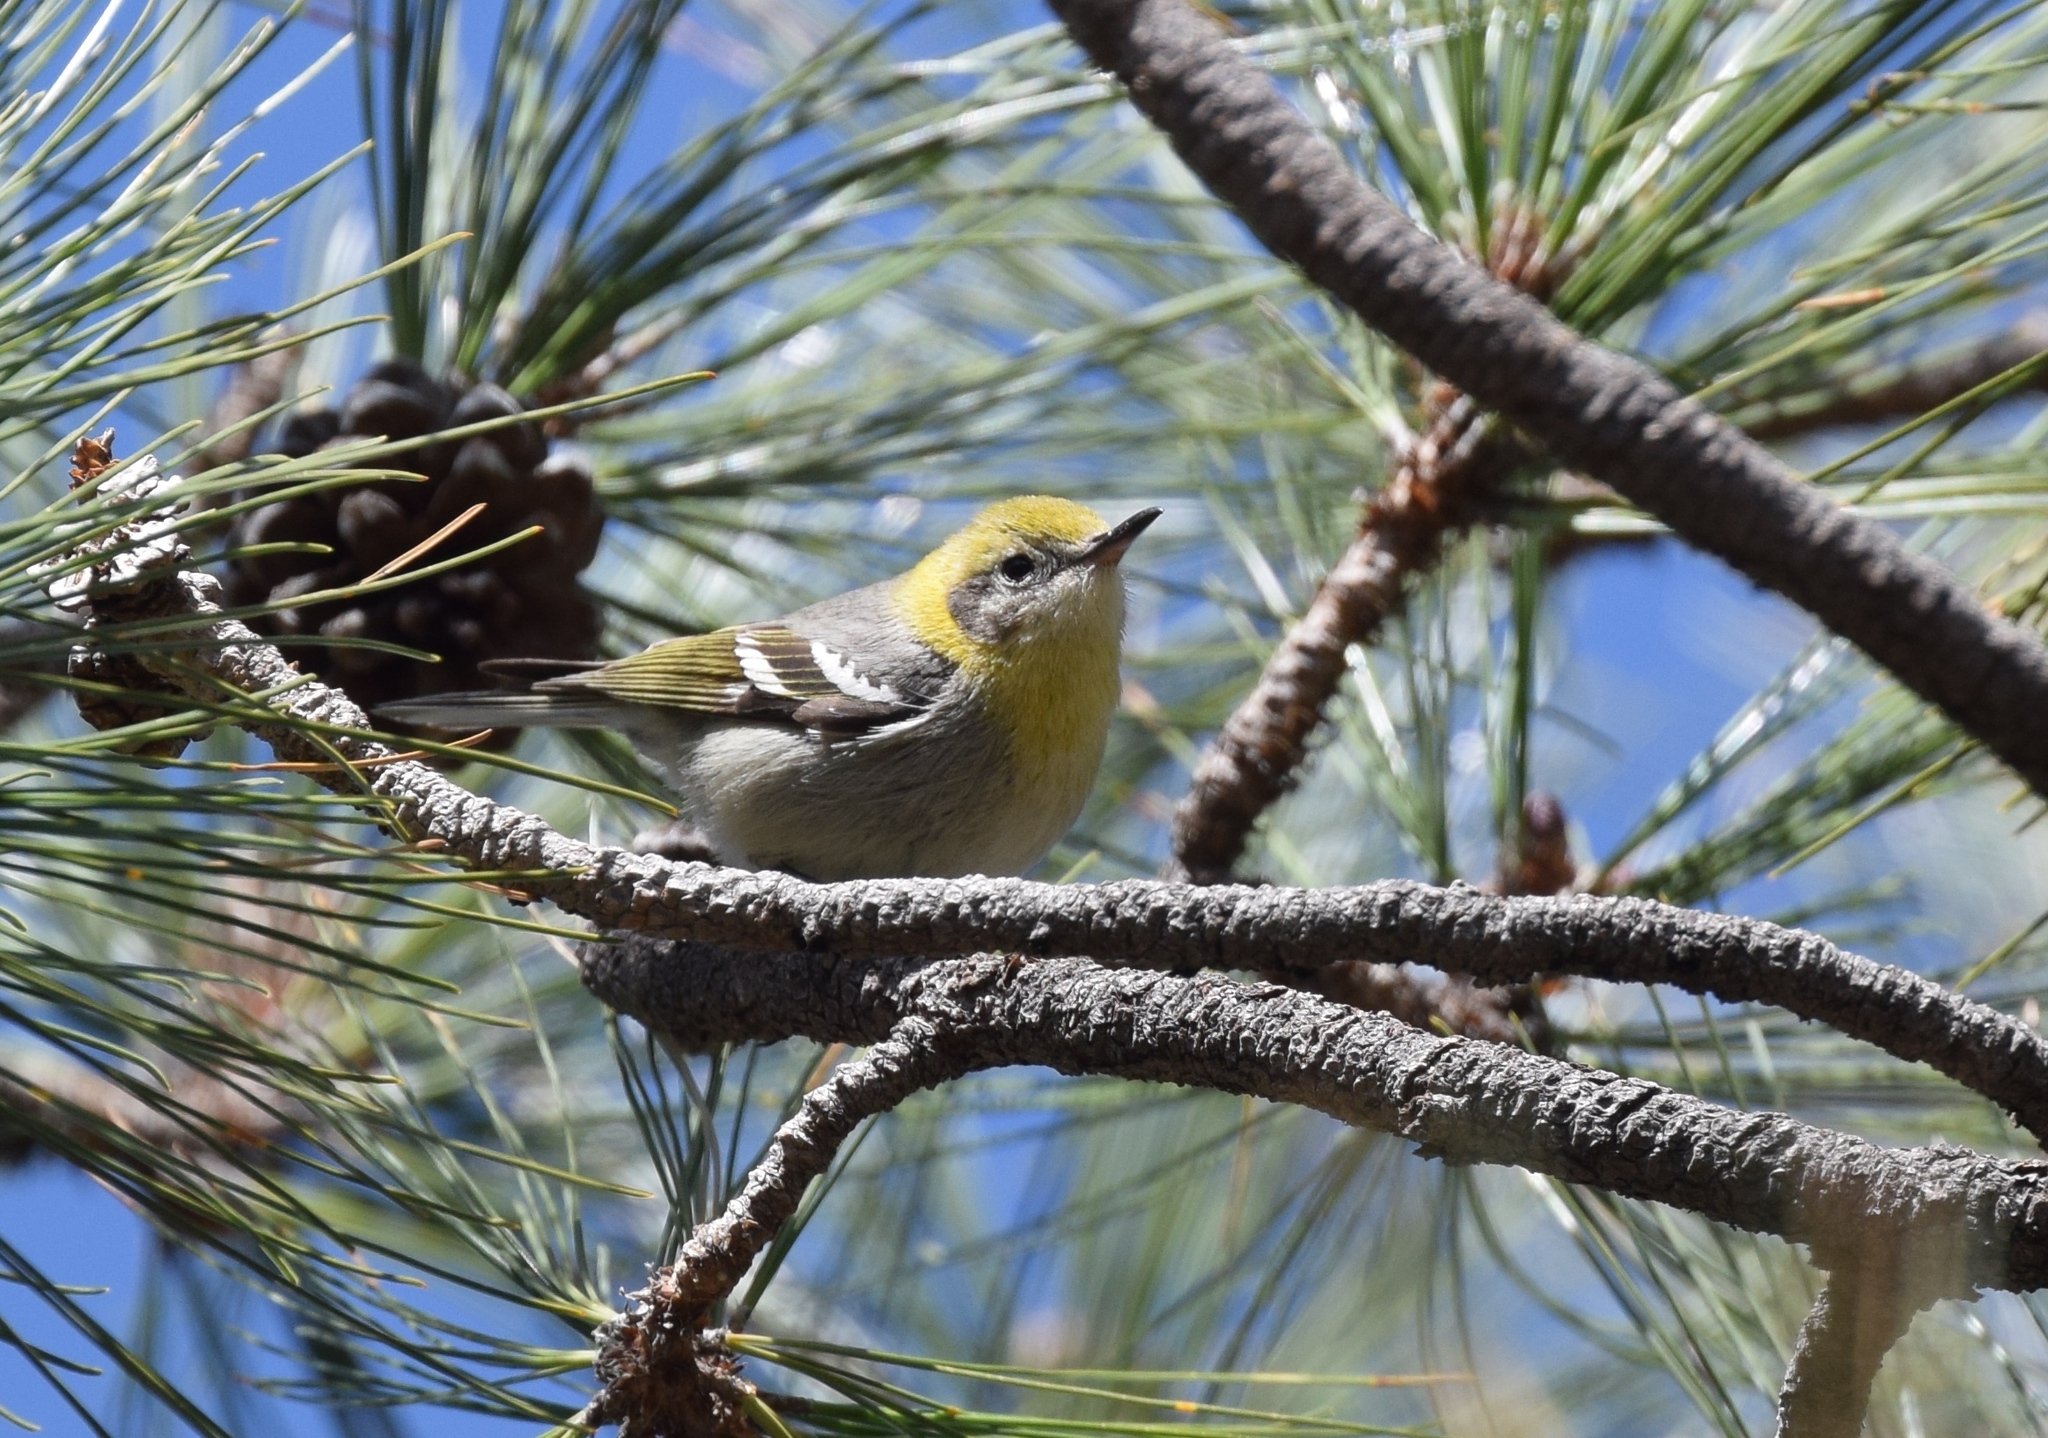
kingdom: Animalia
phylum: Chordata
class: Aves
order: Passeriformes
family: Peucedramidae
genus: Peucedramus
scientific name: Peucedramus taeniatus
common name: Olive warbler
